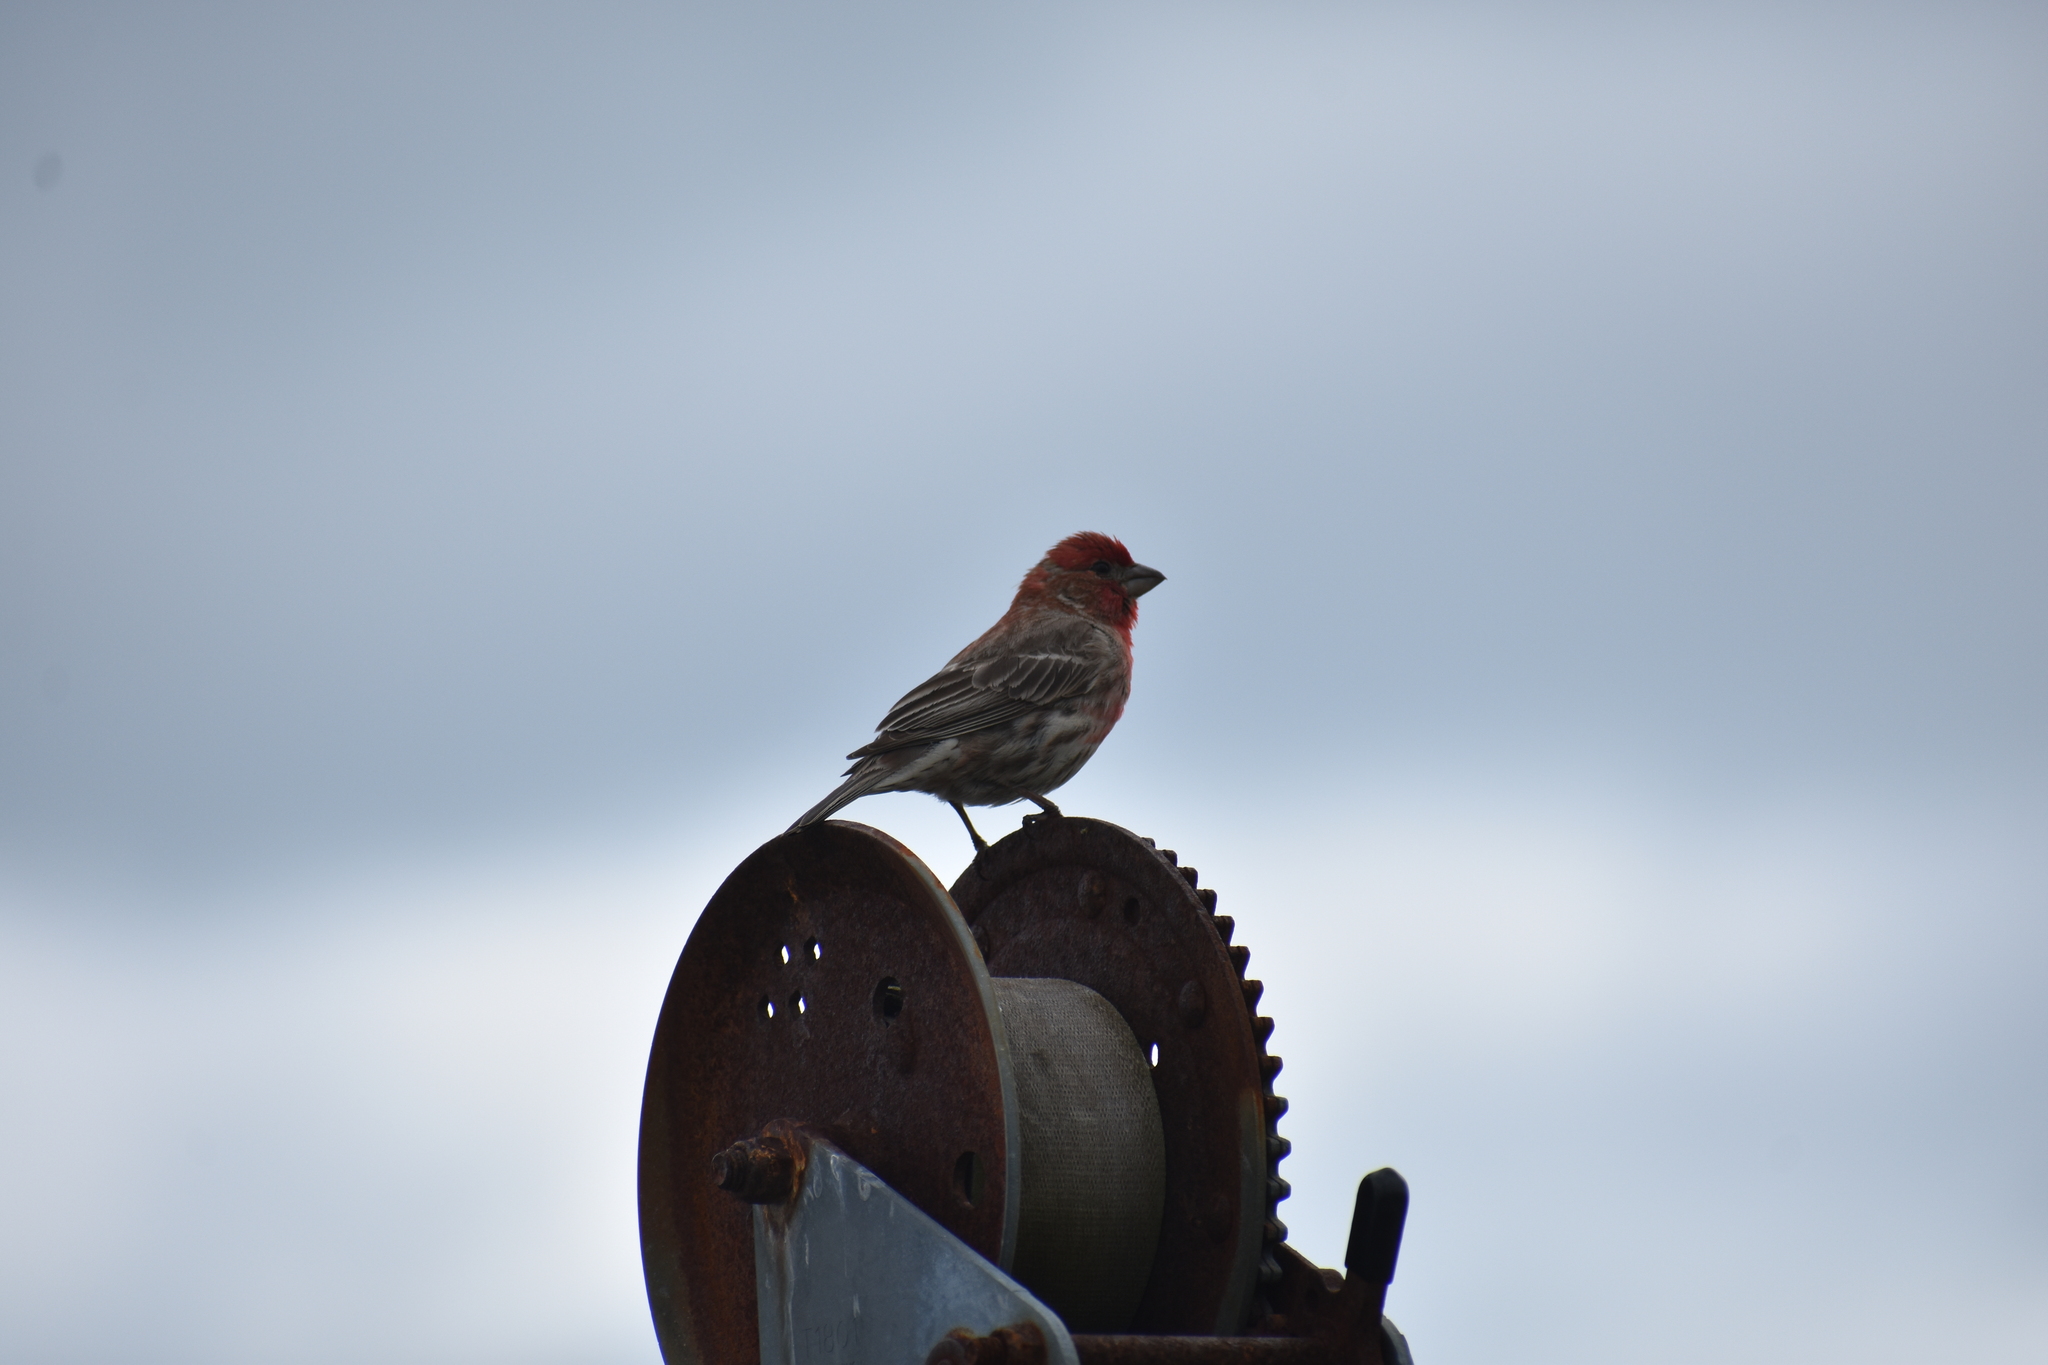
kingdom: Animalia
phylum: Chordata
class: Aves
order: Passeriformes
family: Fringillidae
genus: Haemorhous
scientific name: Haemorhous mexicanus
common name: House finch
